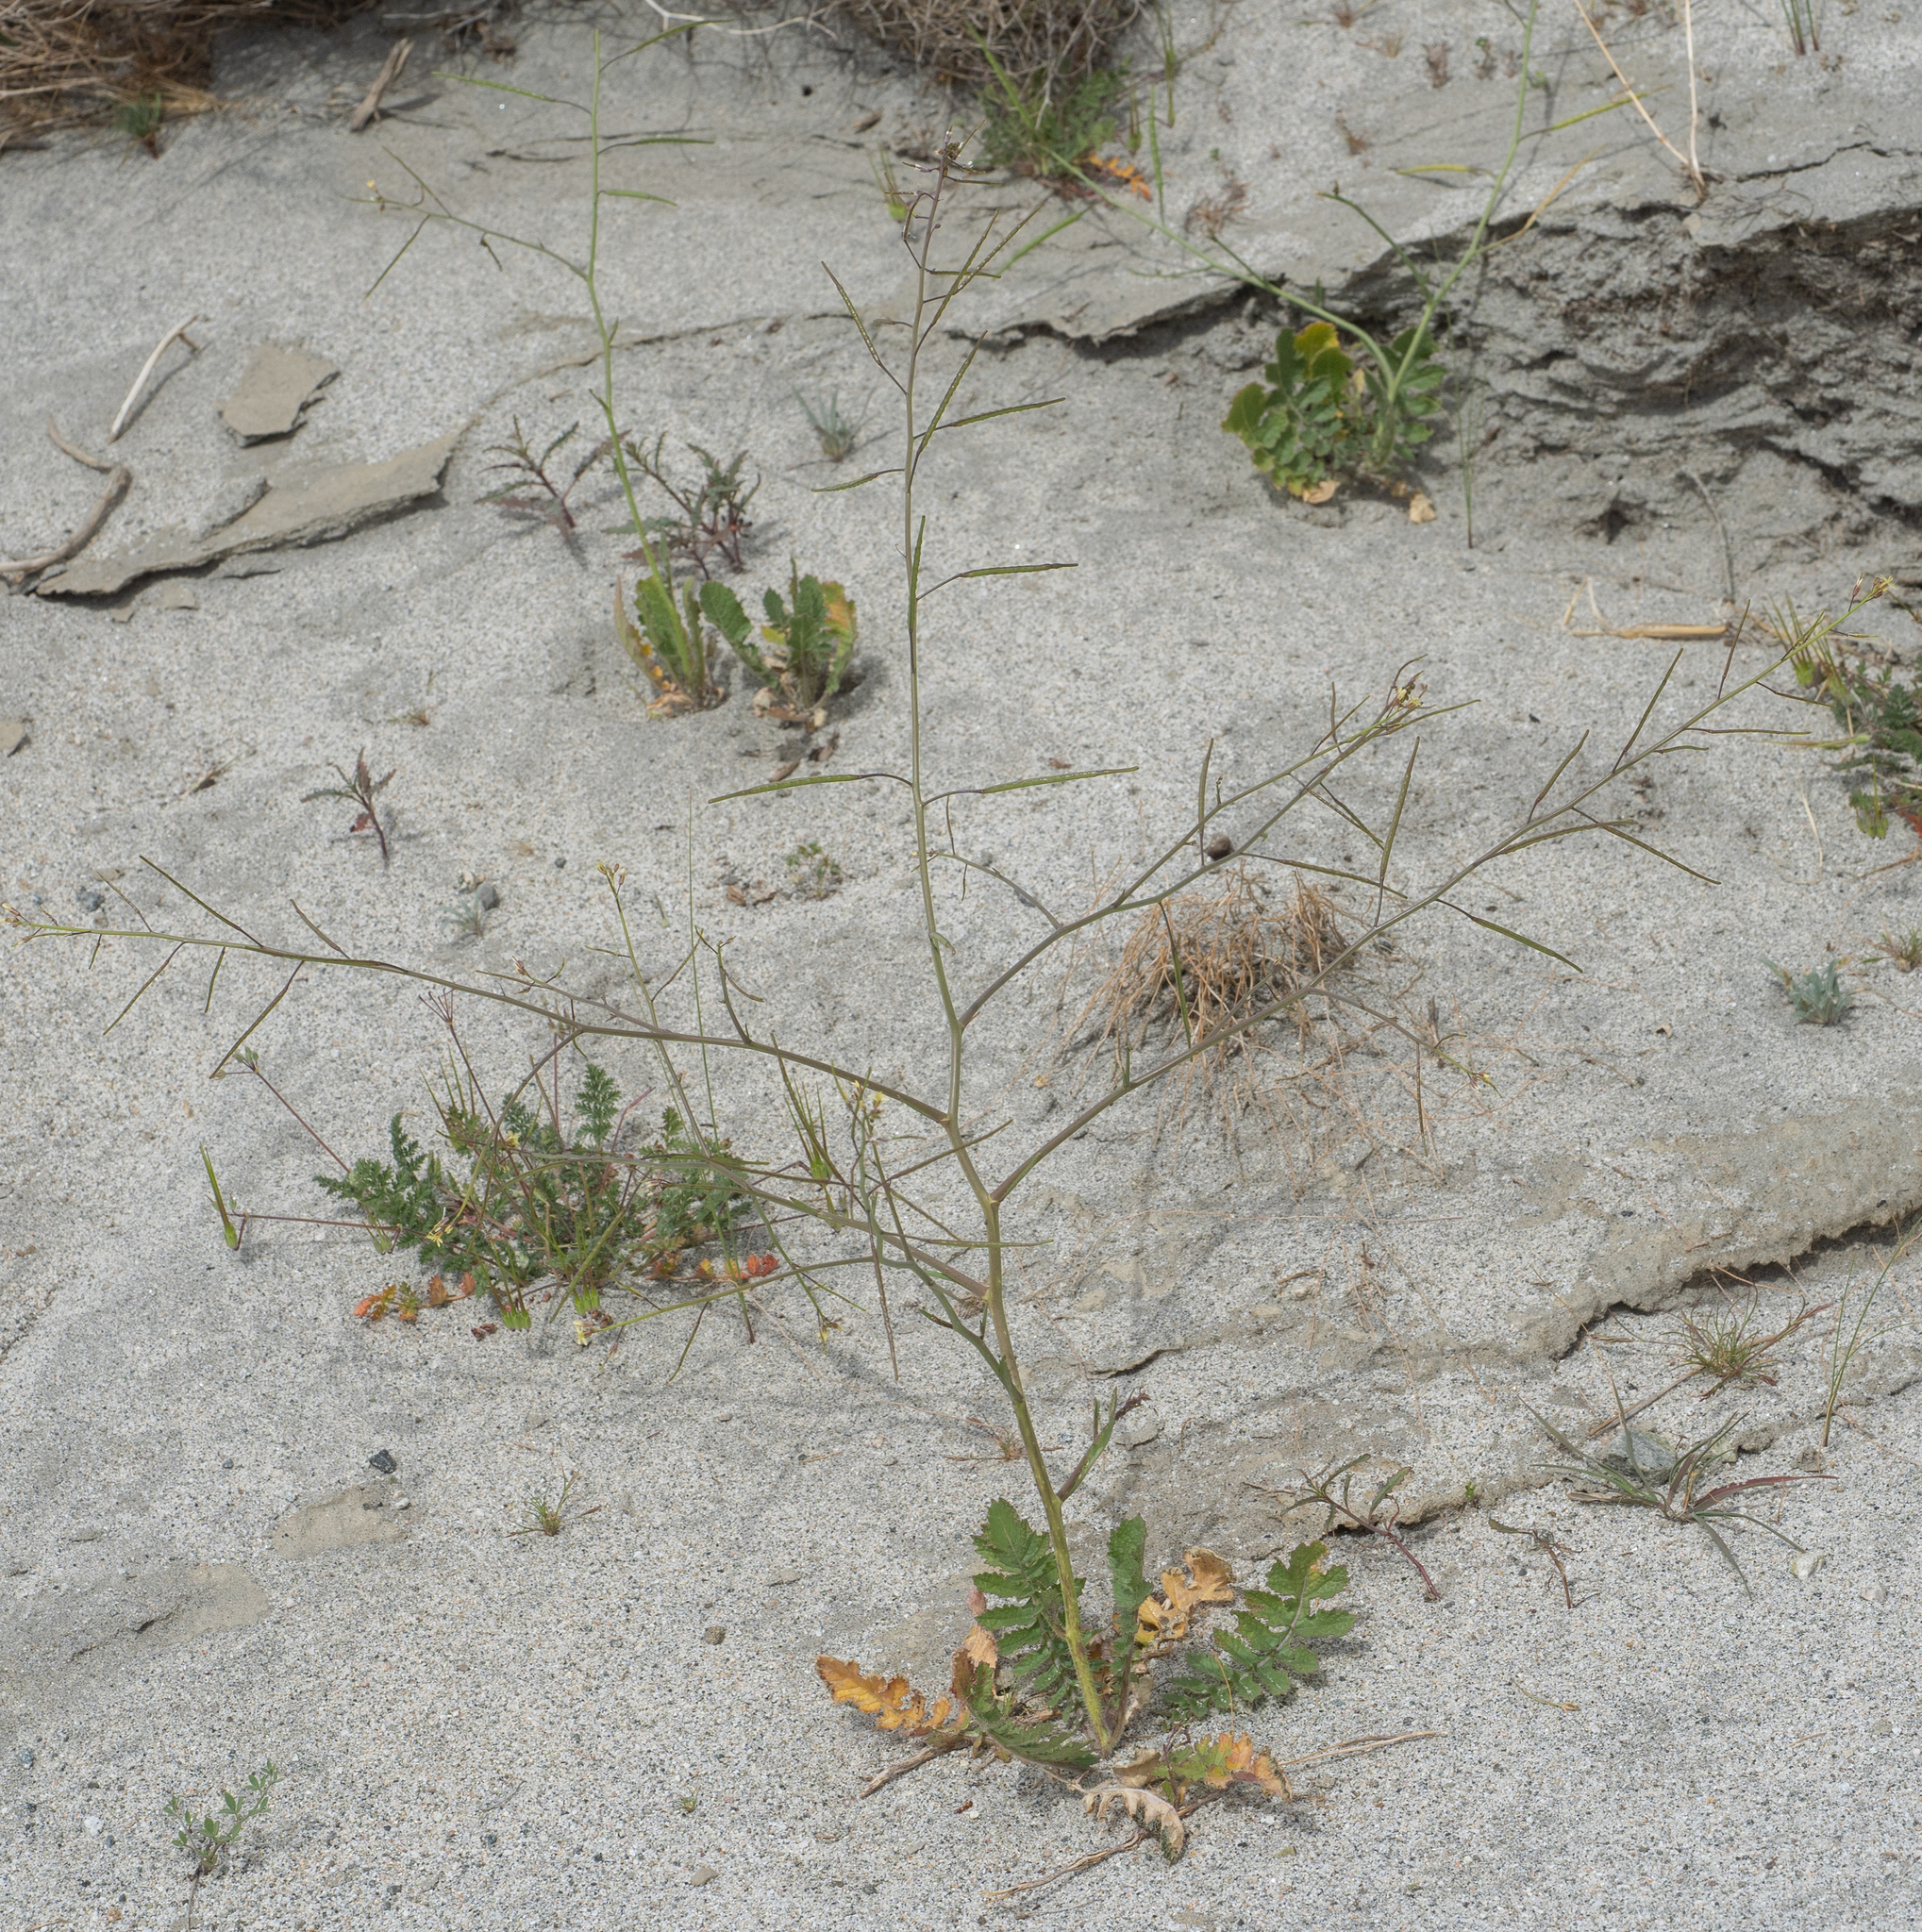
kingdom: Plantae
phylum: Tracheophyta
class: Magnoliopsida
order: Brassicales
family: Brassicaceae
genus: Brassica
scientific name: Brassica tournefortii
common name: Pale cabbage
